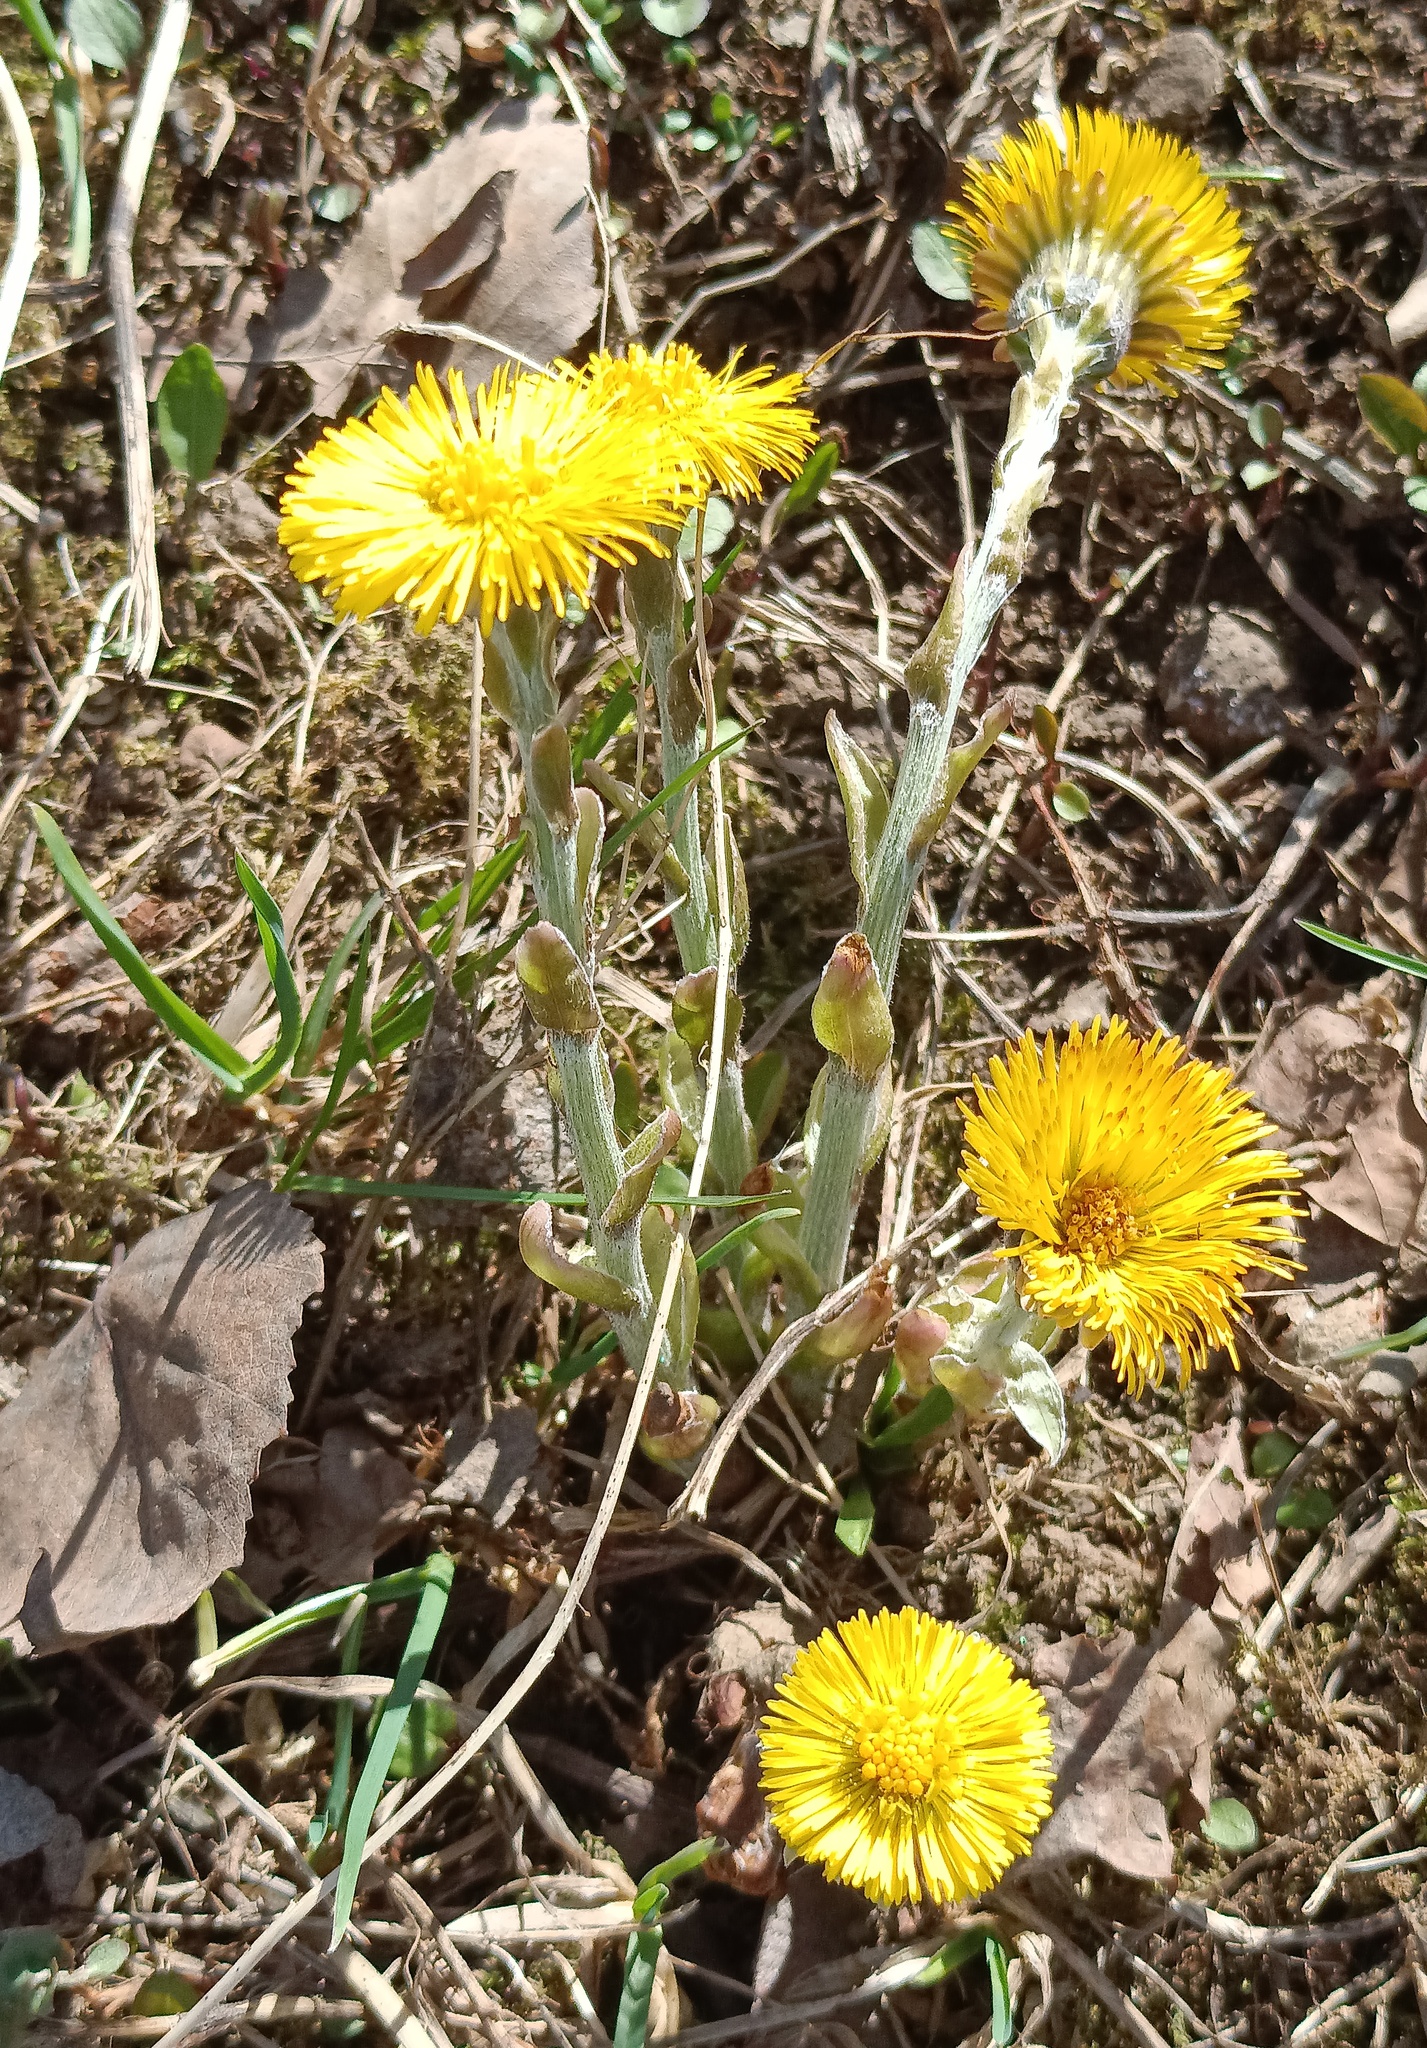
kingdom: Plantae
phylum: Tracheophyta
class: Magnoliopsida
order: Asterales
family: Asteraceae
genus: Tussilago
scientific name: Tussilago farfara
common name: Coltsfoot
